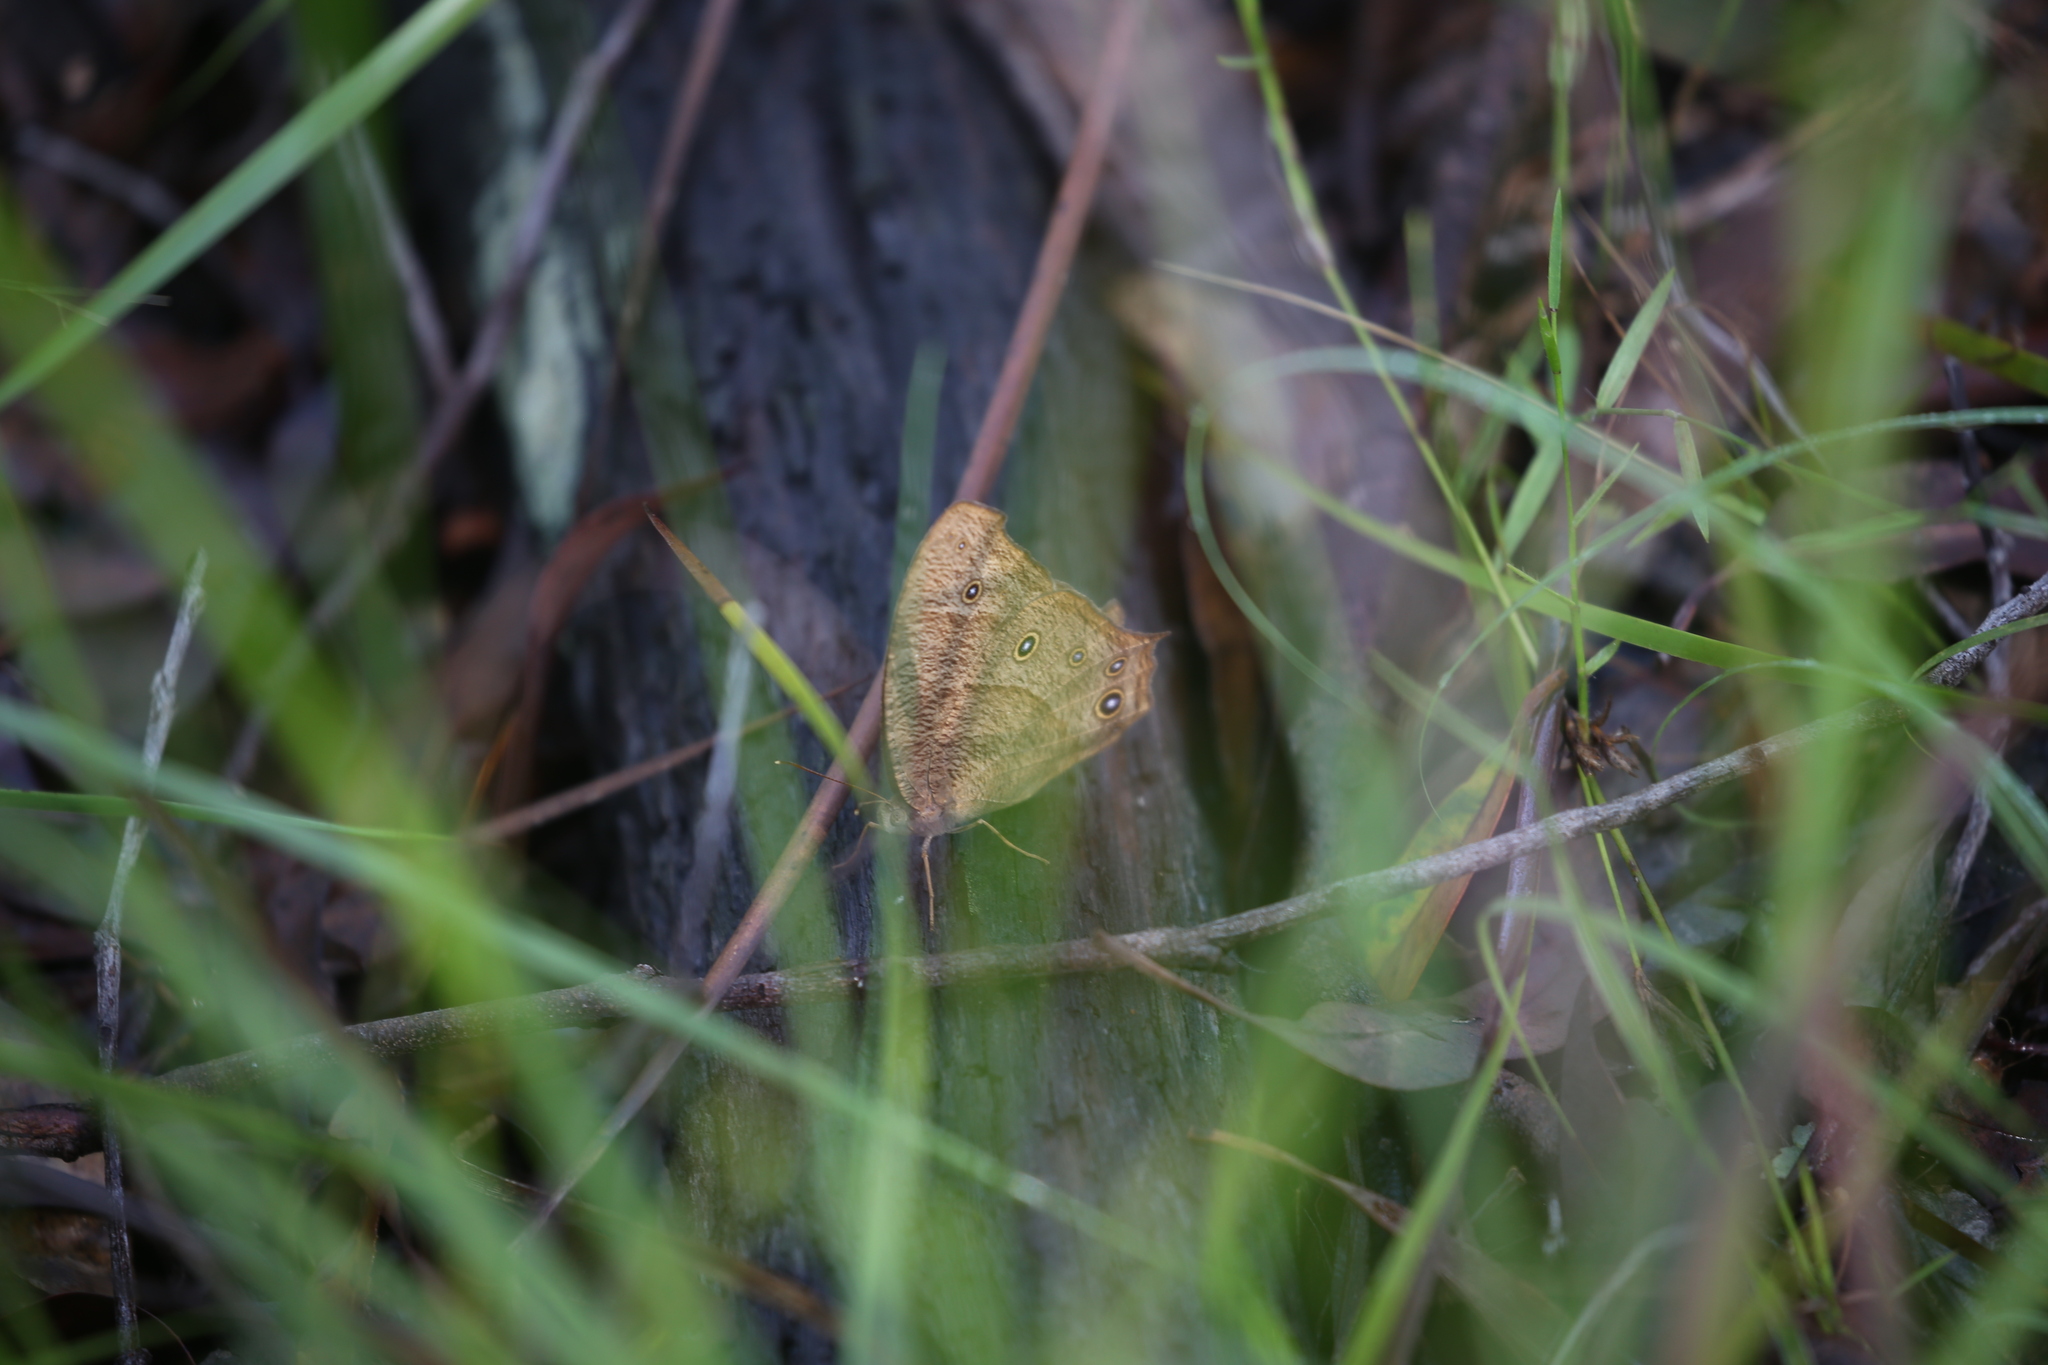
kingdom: Animalia
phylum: Arthropoda
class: Insecta
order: Lepidoptera
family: Nymphalidae
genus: Melanitis
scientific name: Melanitis leda
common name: Twilight brown
